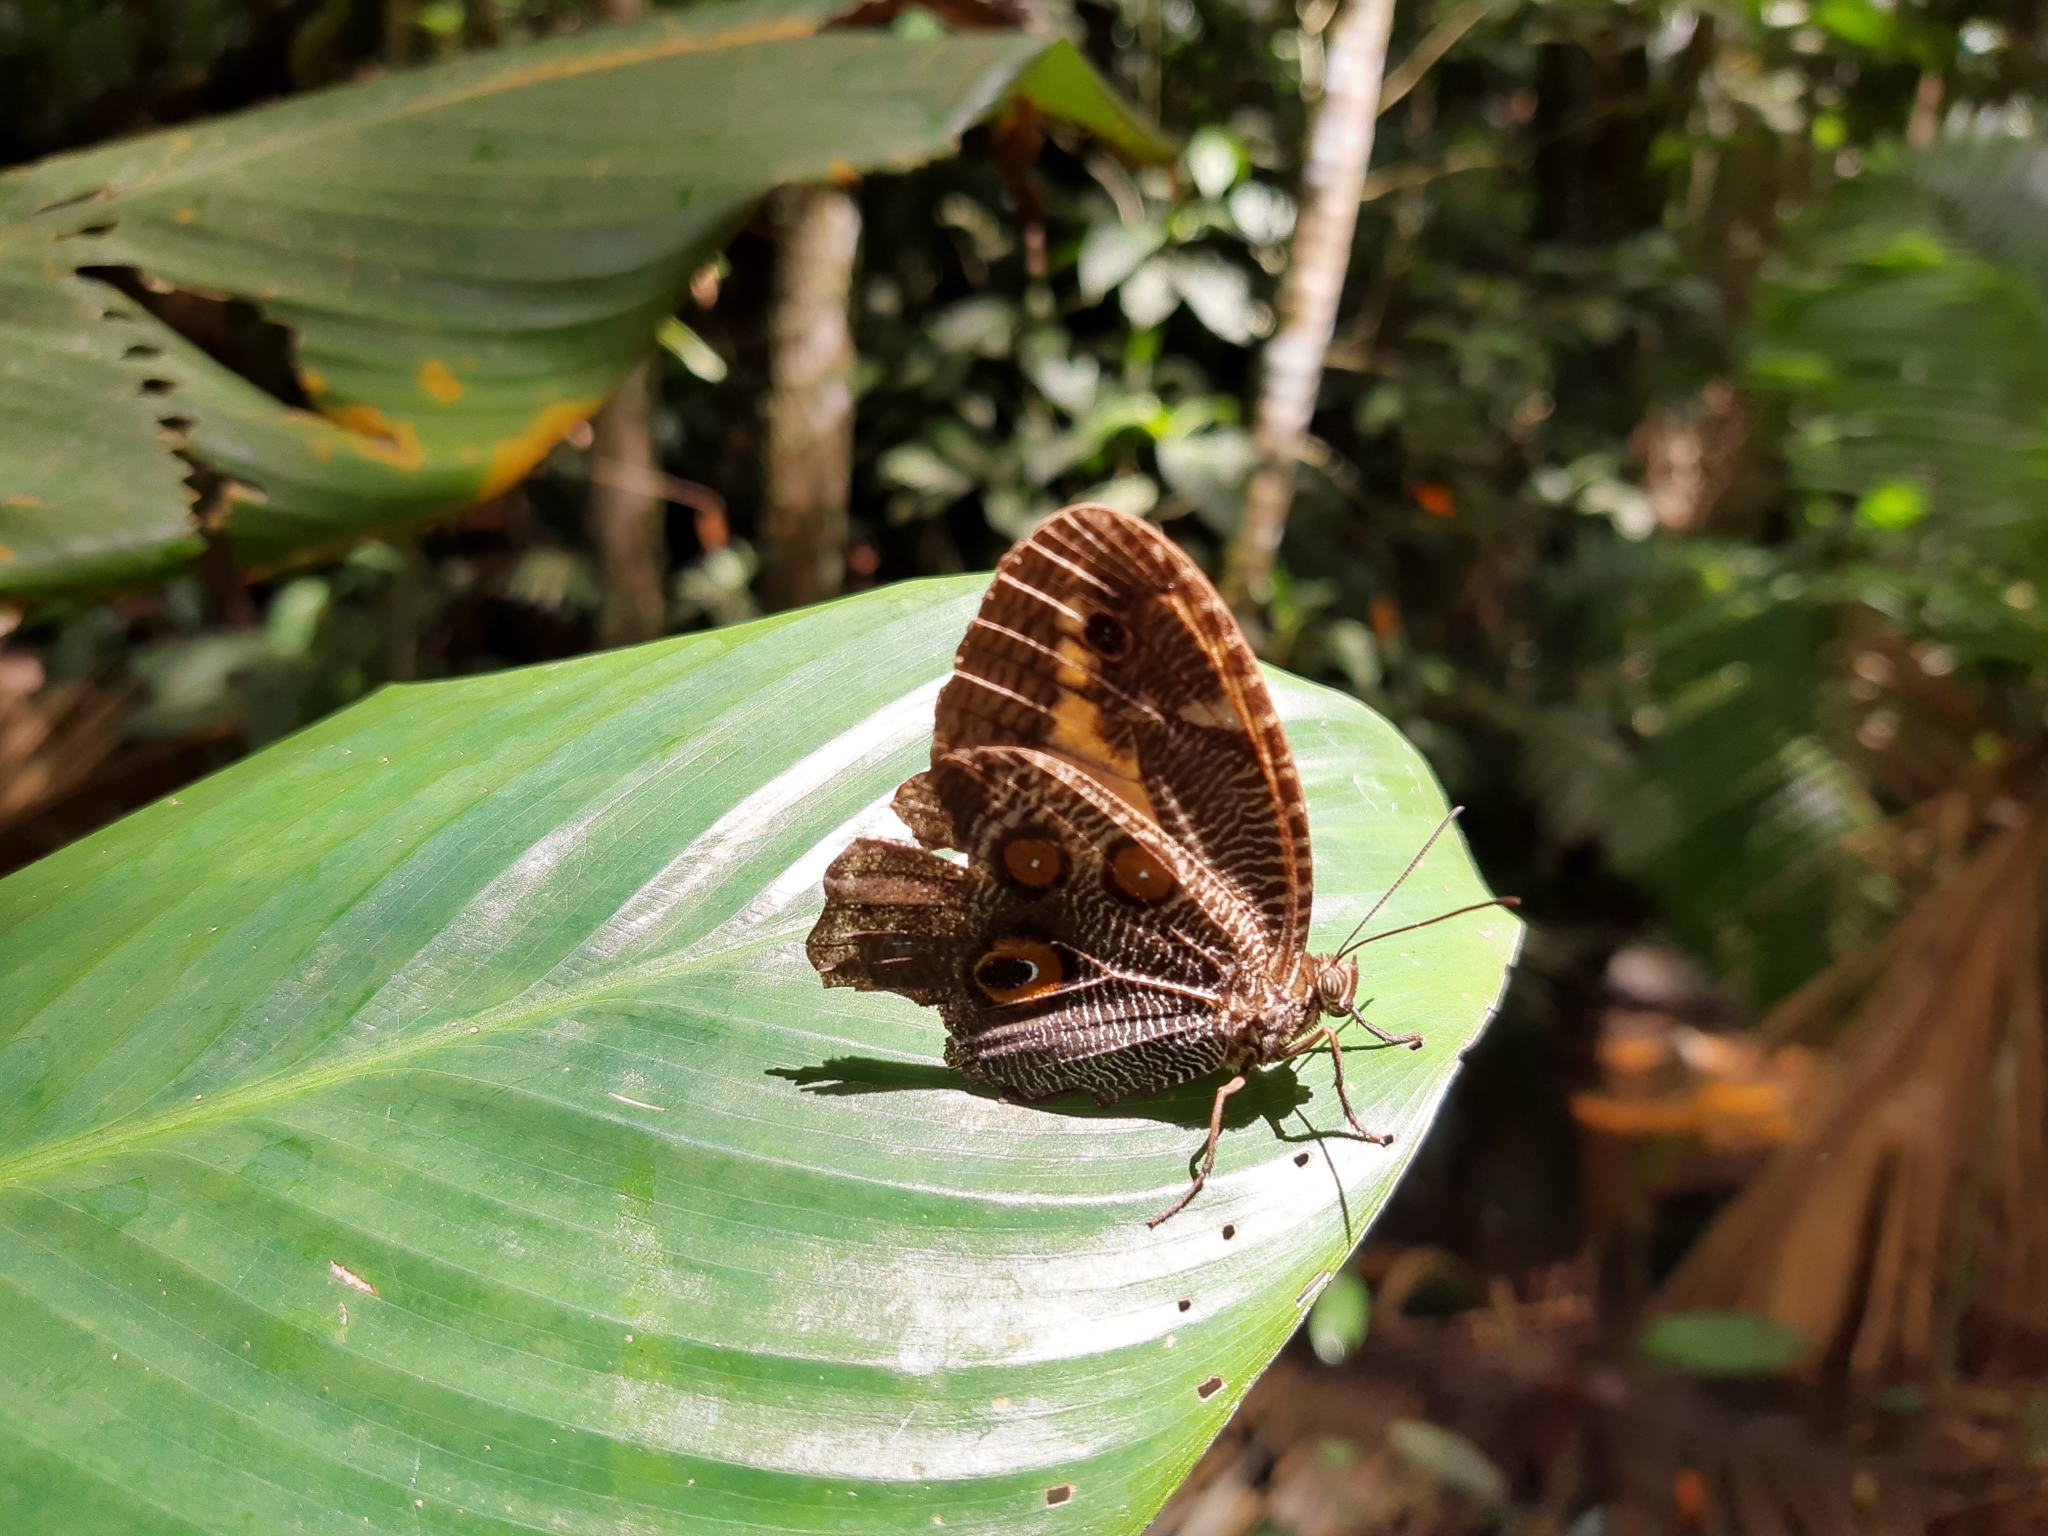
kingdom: Animalia
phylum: Arthropoda
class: Insecta
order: Lepidoptera
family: Nymphalidae
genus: Dasyophthalma
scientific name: Dasyophthalma creusa
